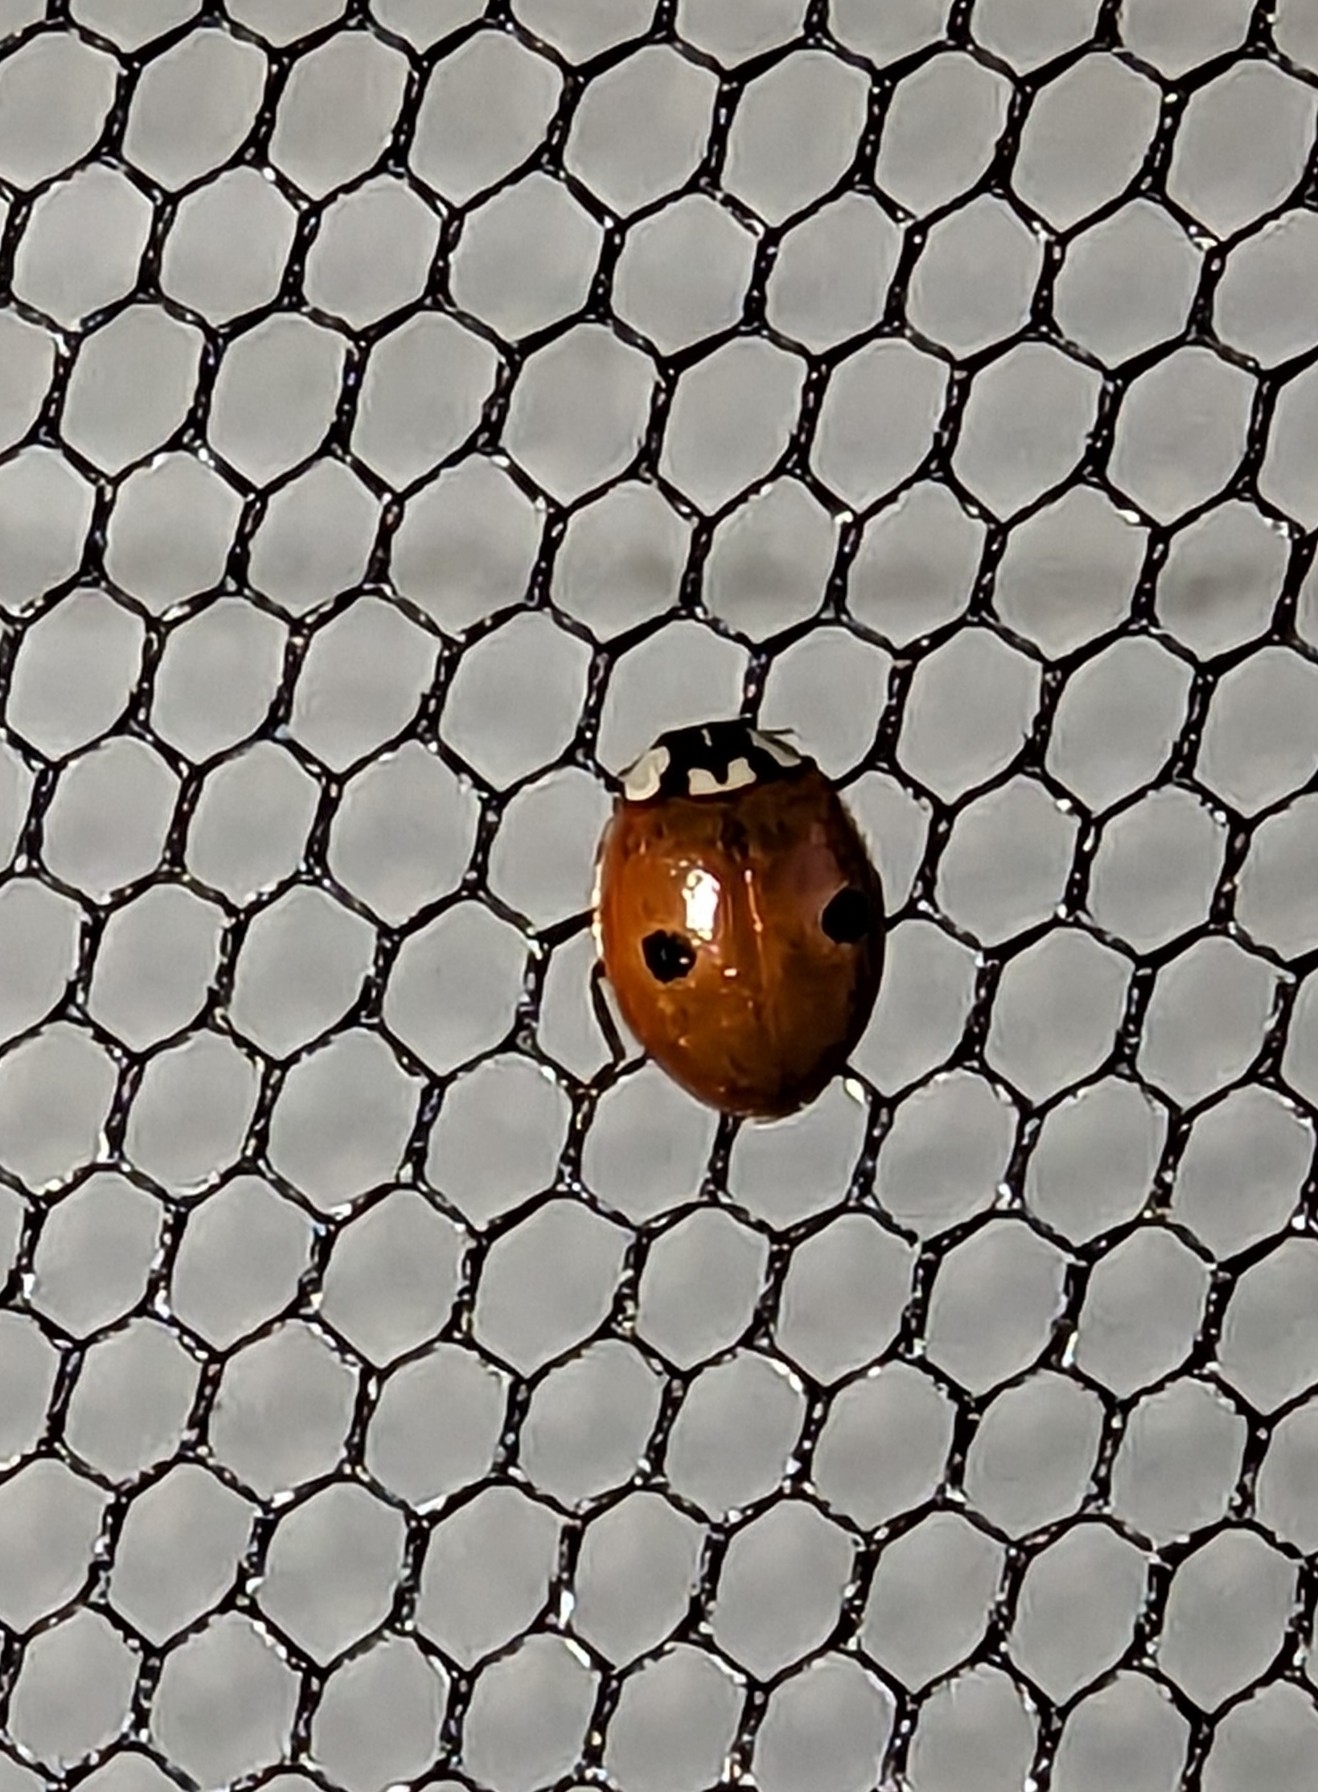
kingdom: Animalia
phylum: Arthropoda
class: Insecta
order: Coleoptera
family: Coccinellidae
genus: Adalia
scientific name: Adalia bipunctata
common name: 2-spot ladybird
